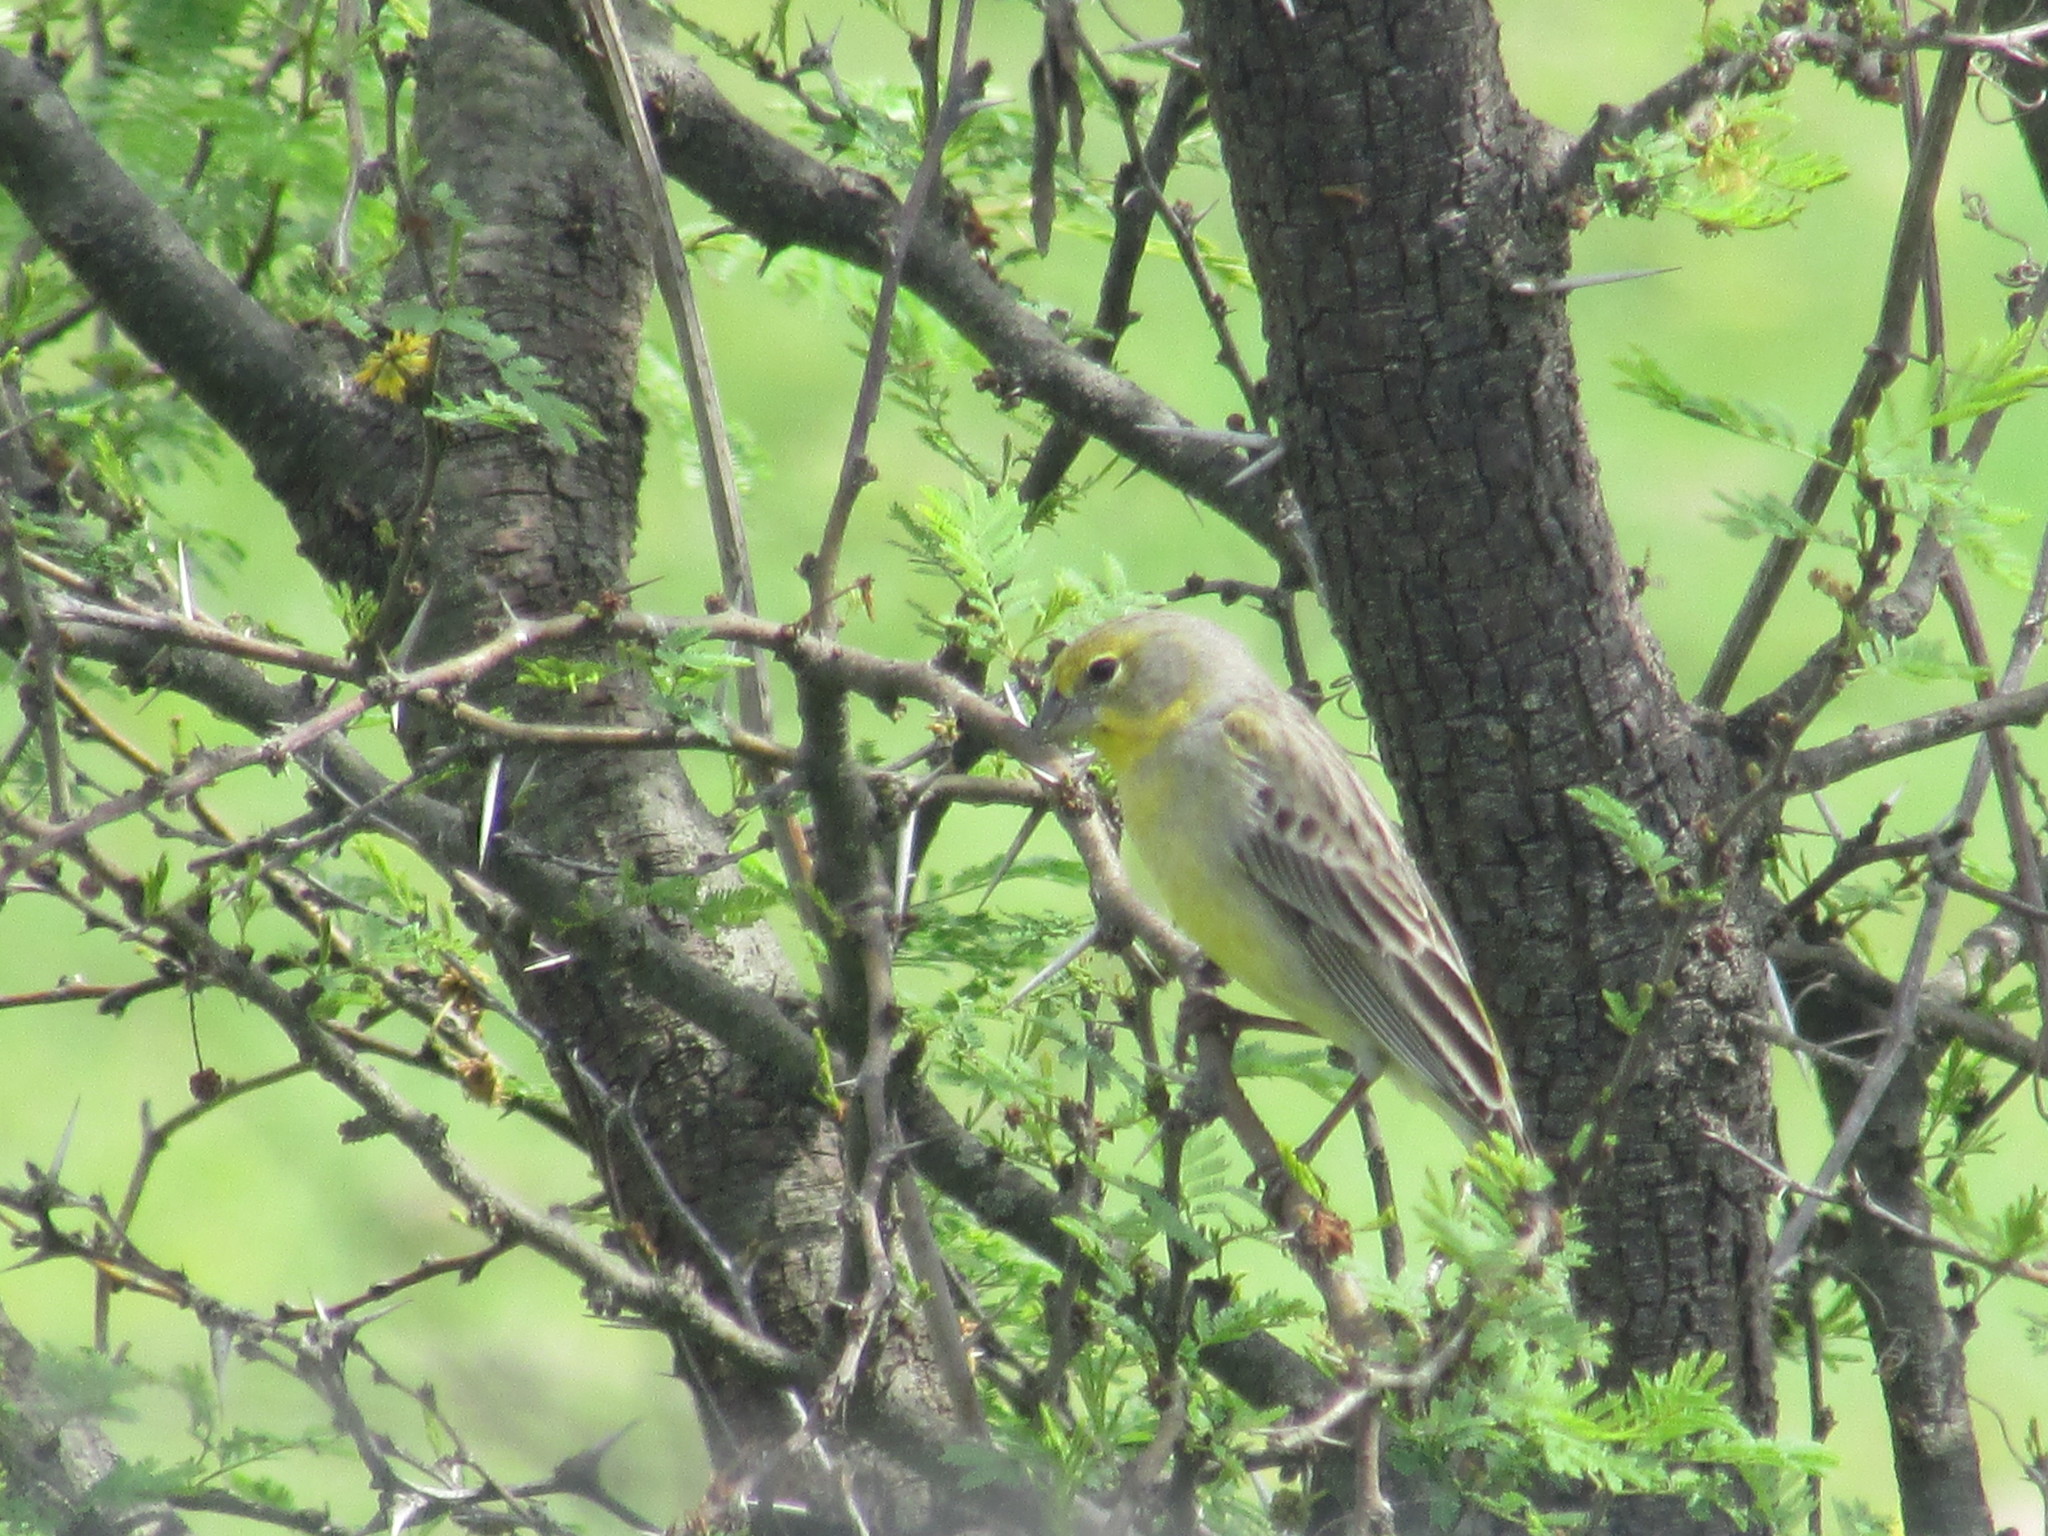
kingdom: Animalia
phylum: Chordata
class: Aves
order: Passeriformes
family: Thraupidae
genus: Sicalis
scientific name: Sicalis luteola
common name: Grassland yellow-finch
